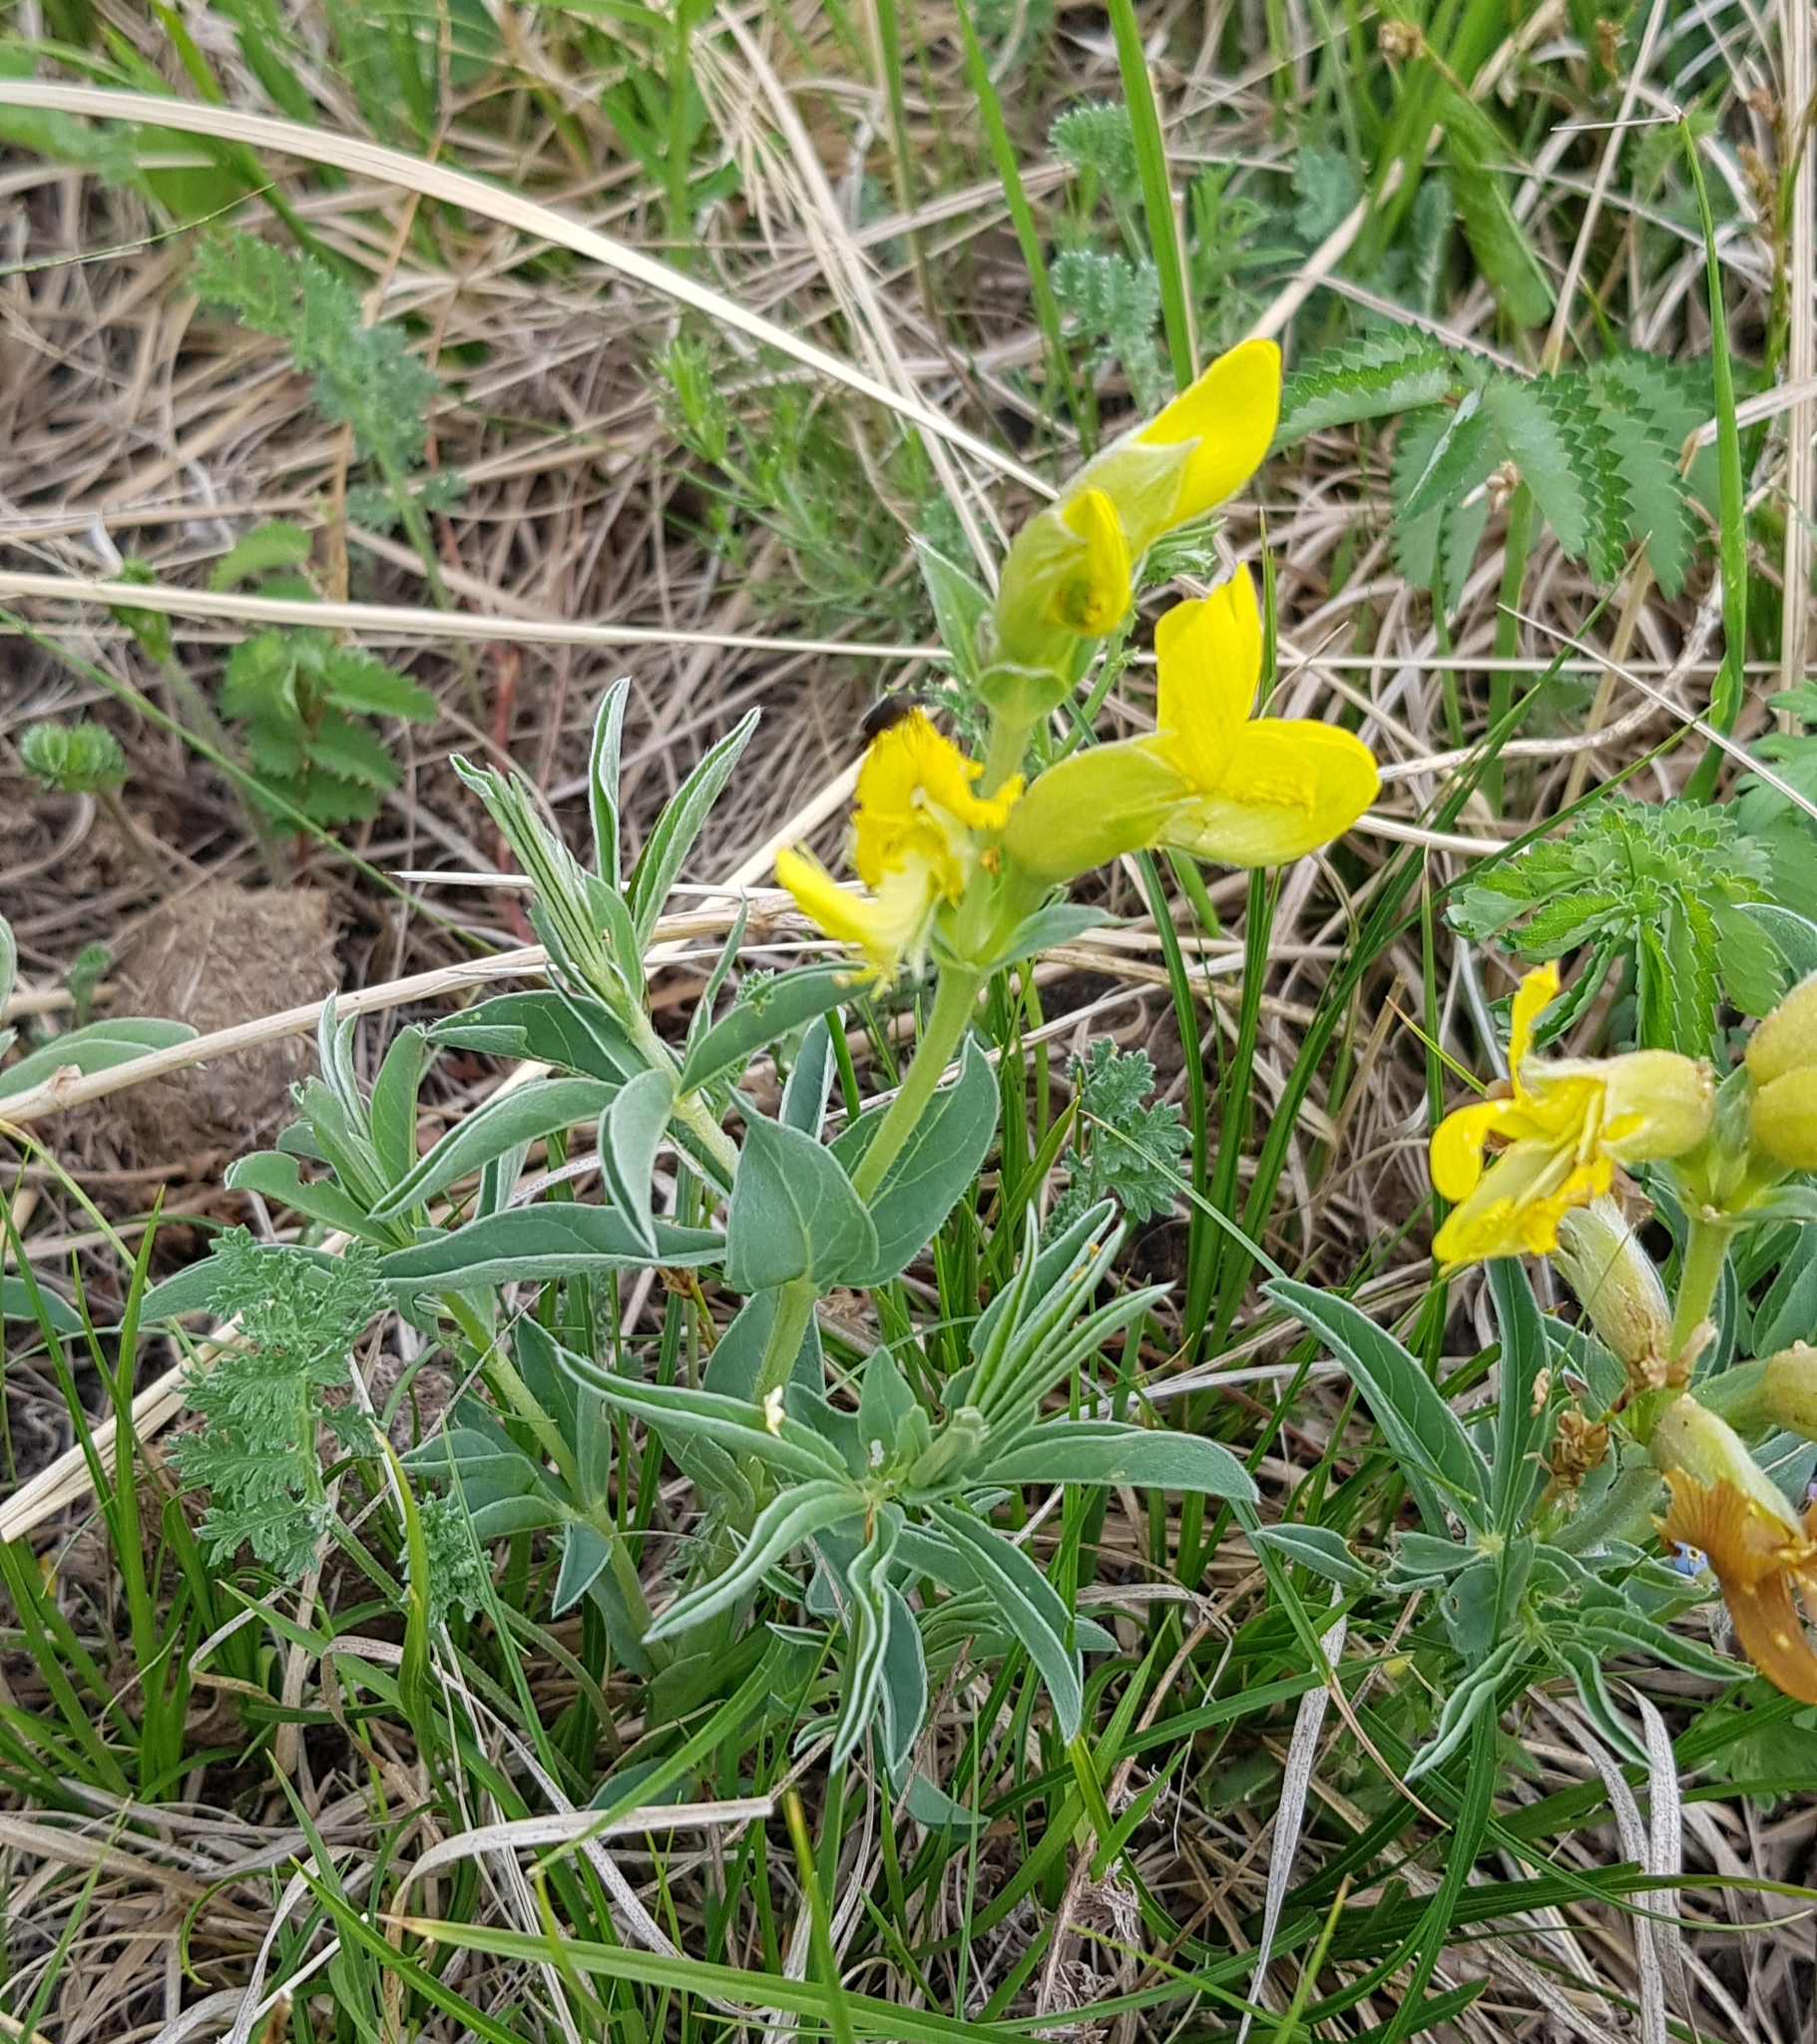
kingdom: Plantae
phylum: Tracheophyta
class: Magnoliopsida
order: Fabales
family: Fabaceae
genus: Thermopsis
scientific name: Thermopsis lanceolata
